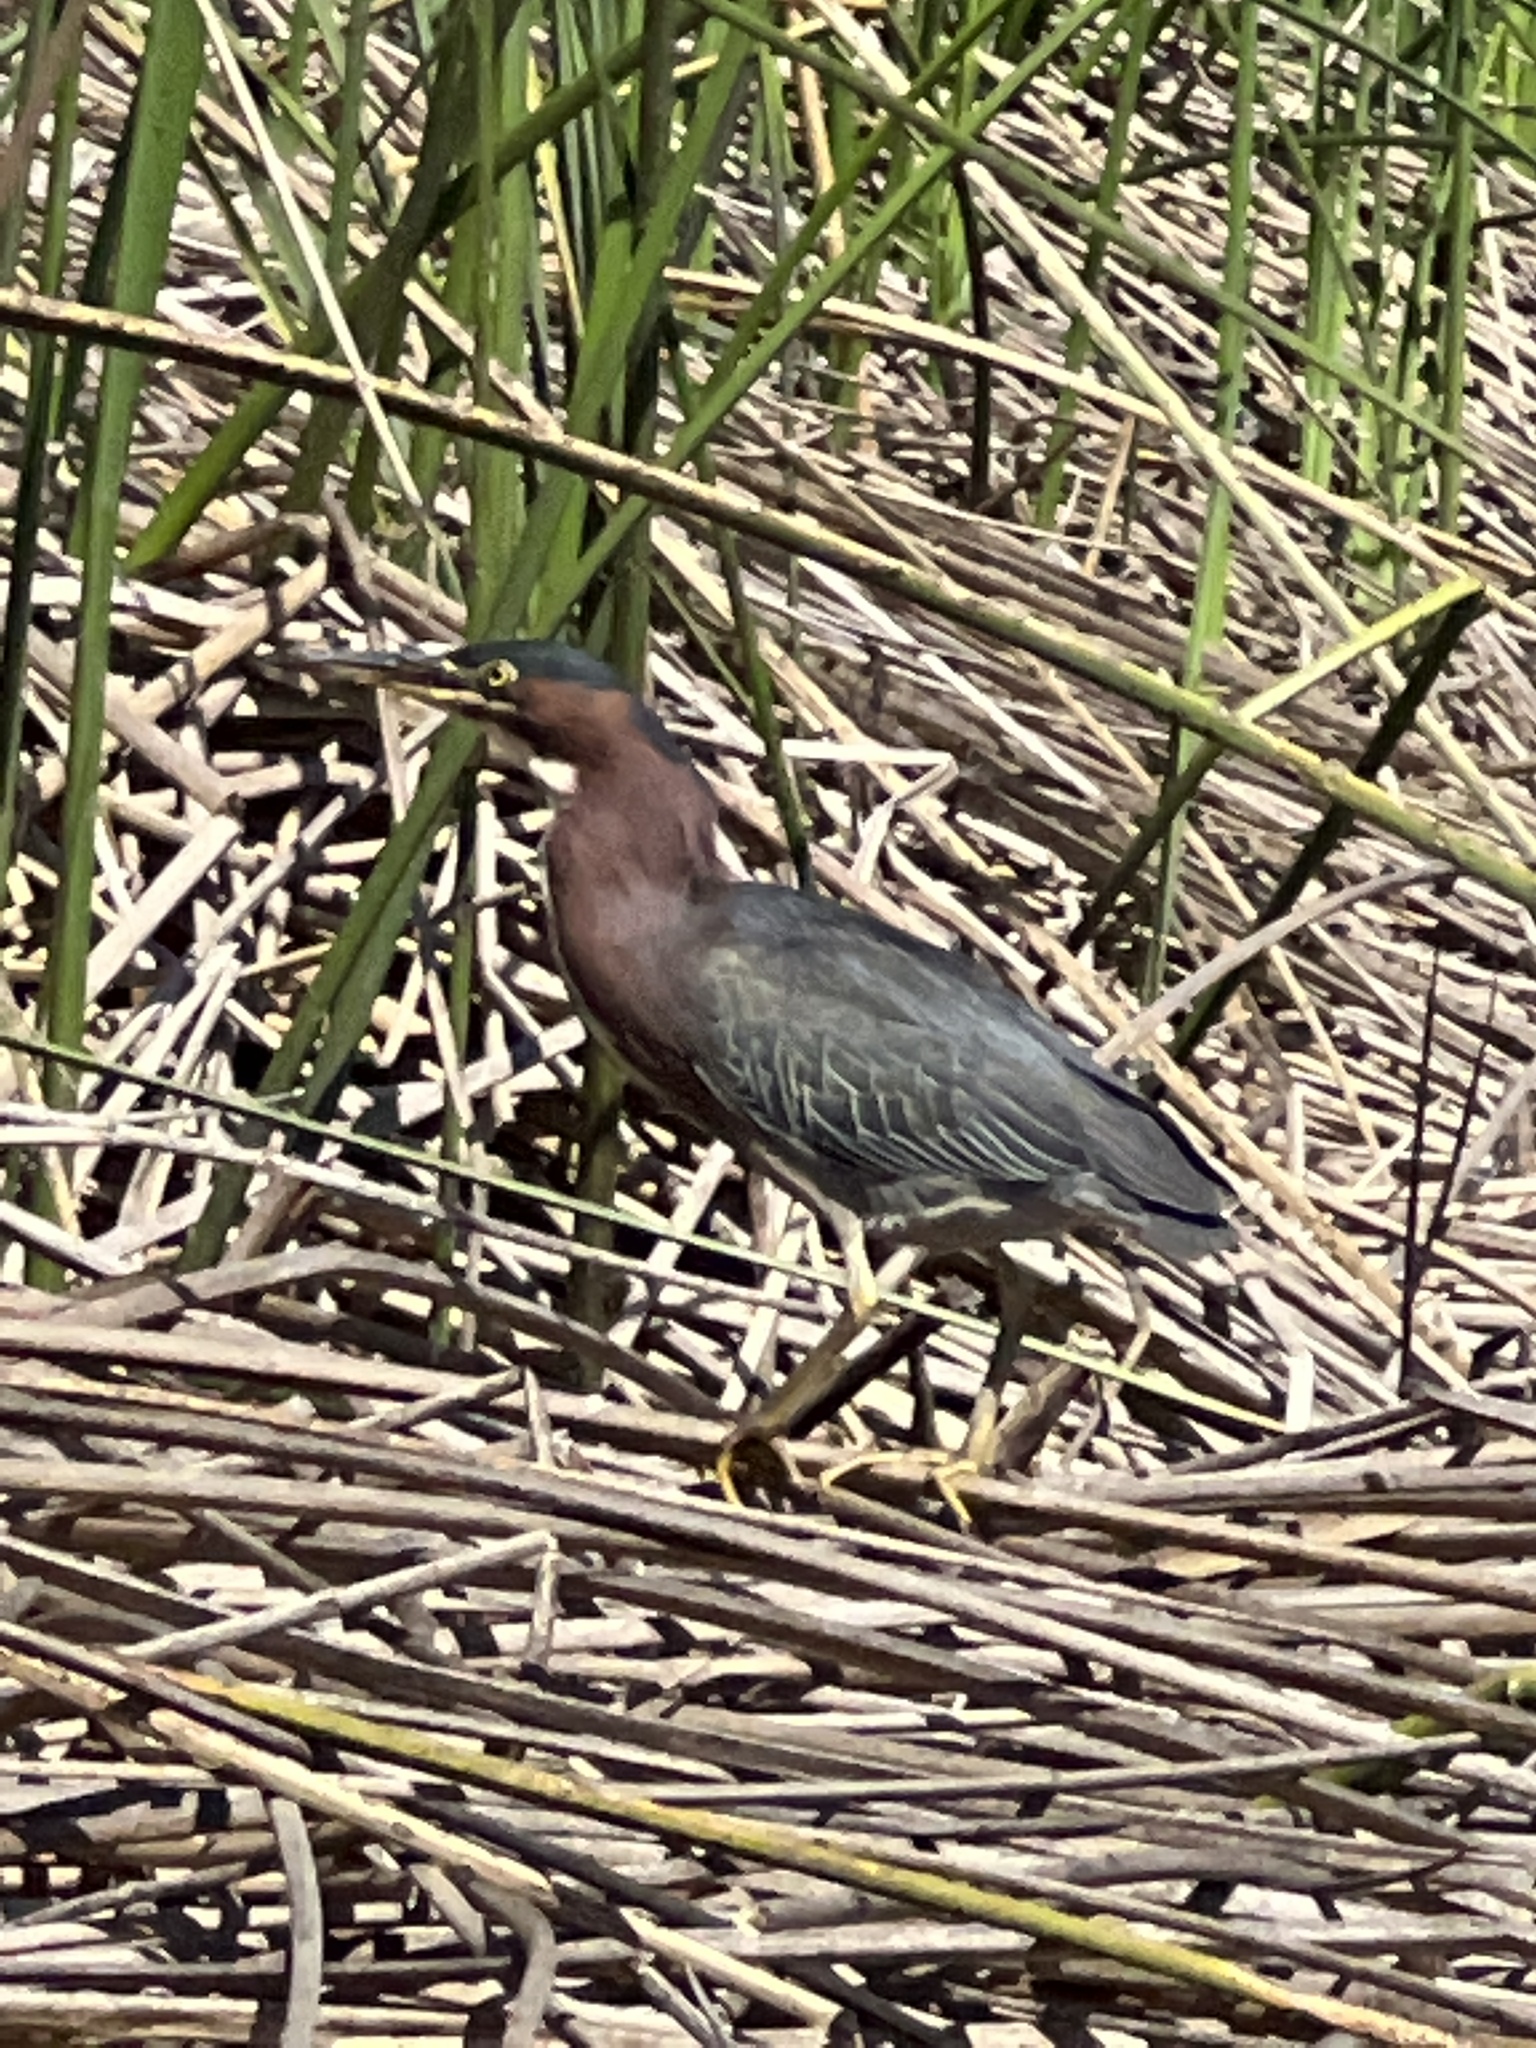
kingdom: Animalia
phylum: Chordata
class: Aves
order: Pelecaniformes
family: Ardeidae
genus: Butorides
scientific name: Butorides virescens
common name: Green heron
